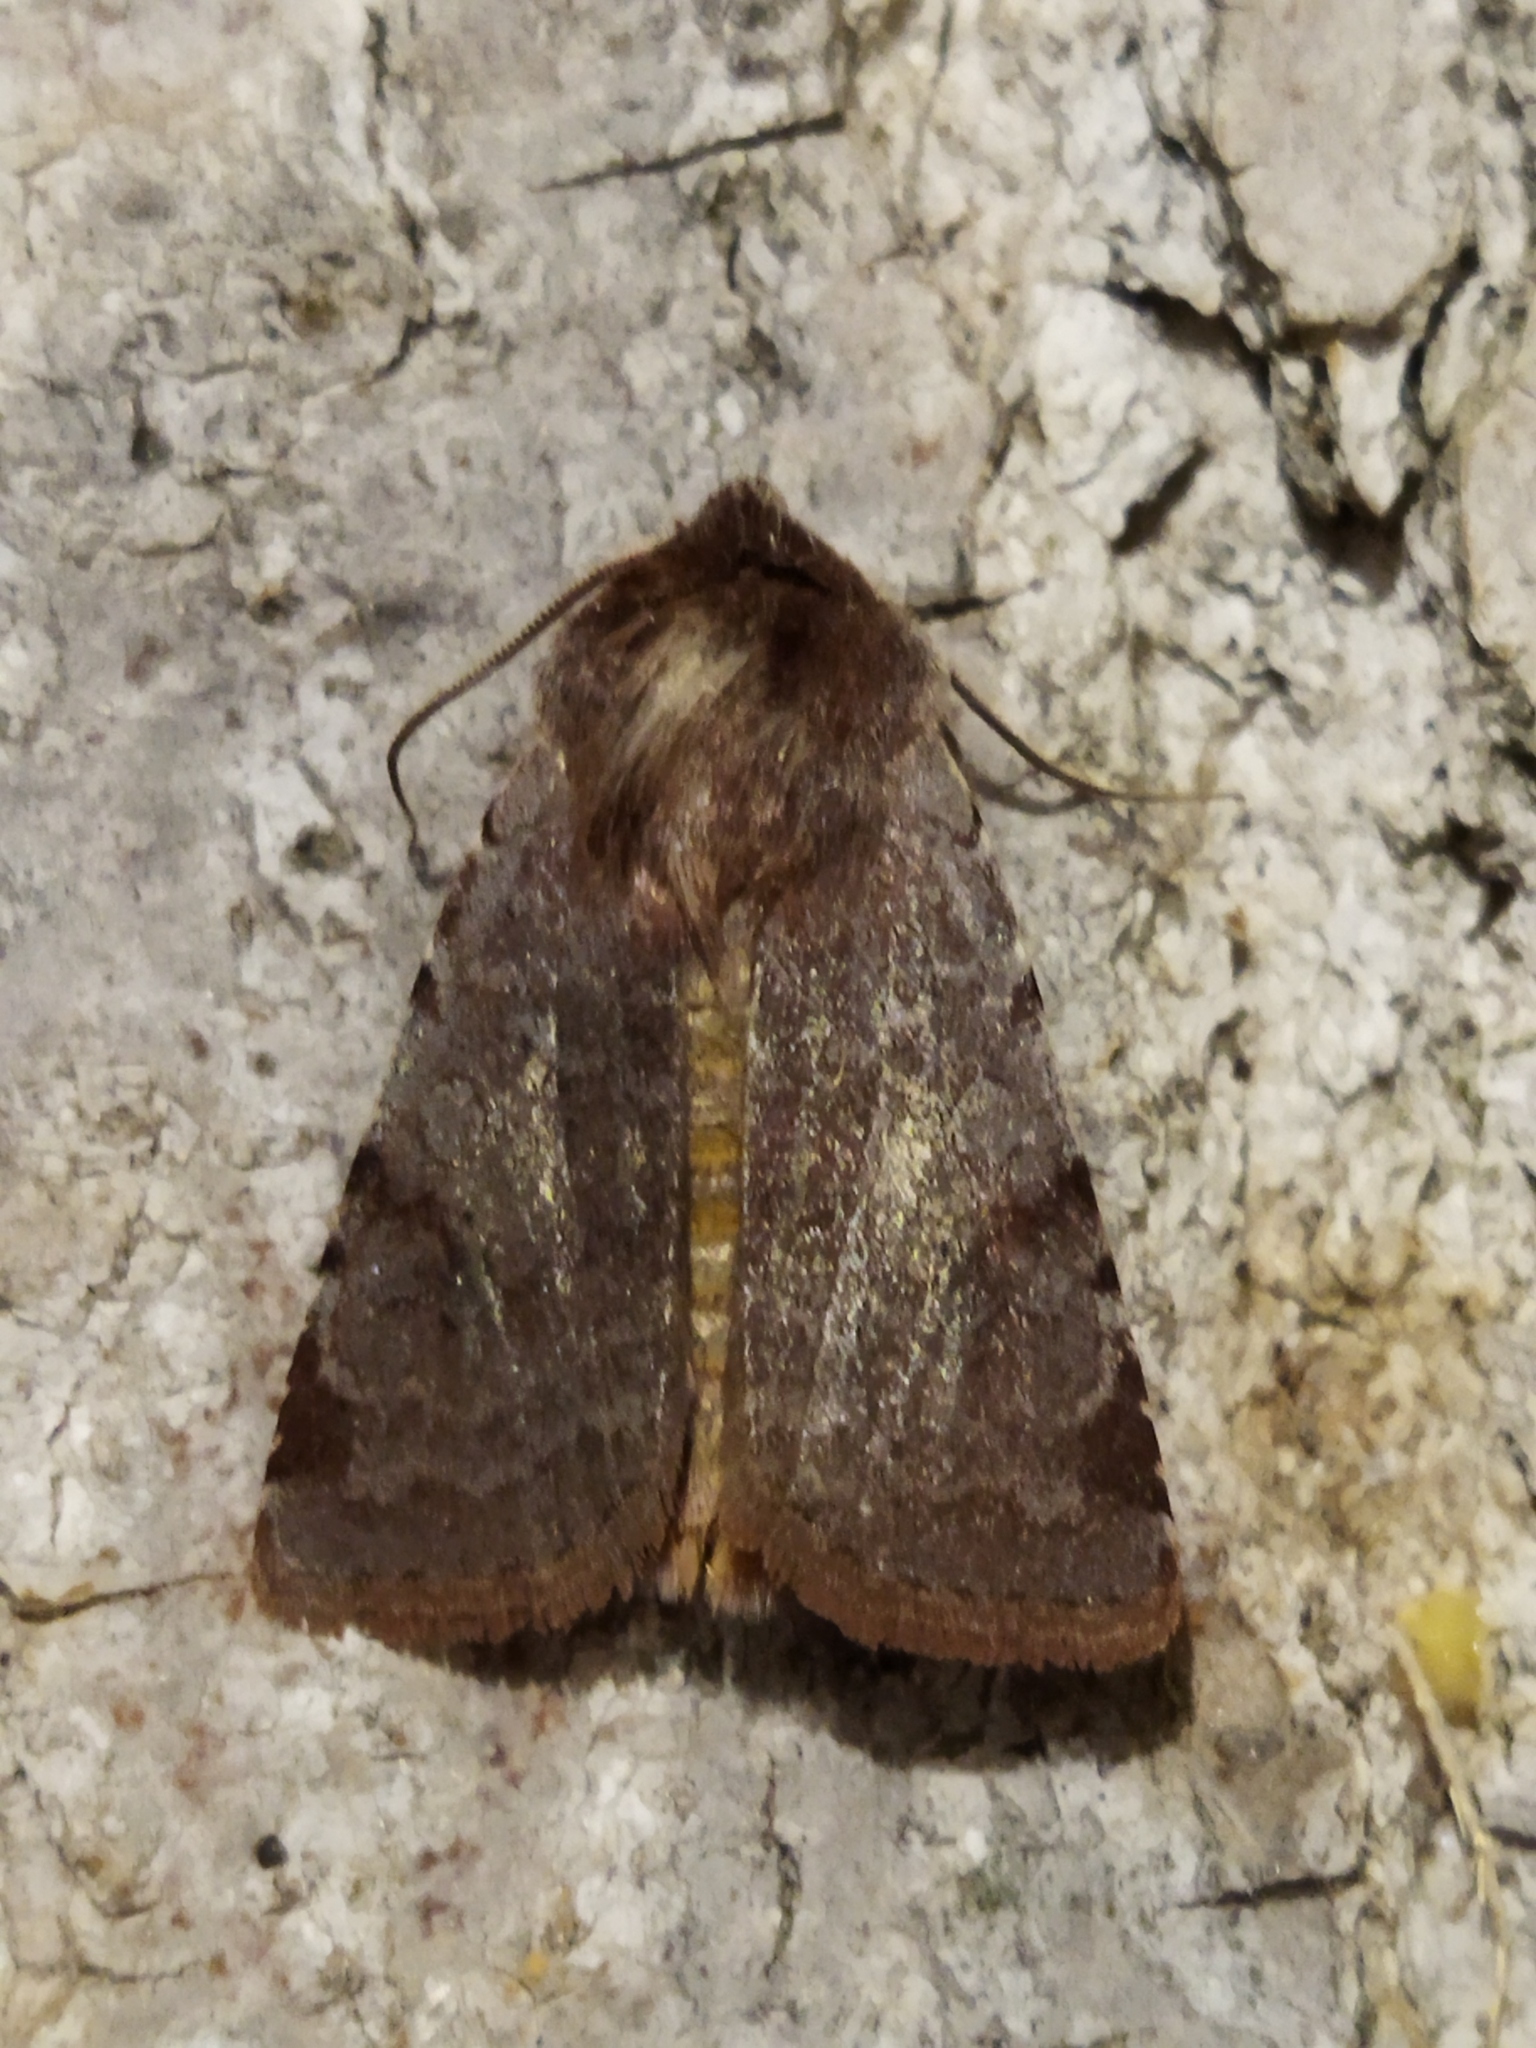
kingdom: Animalia
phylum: Arthropoda
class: Insecta
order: Lepidoptera
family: Noctuidae
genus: Cerastis
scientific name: Cerastis rubricosa
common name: Red chestnut
